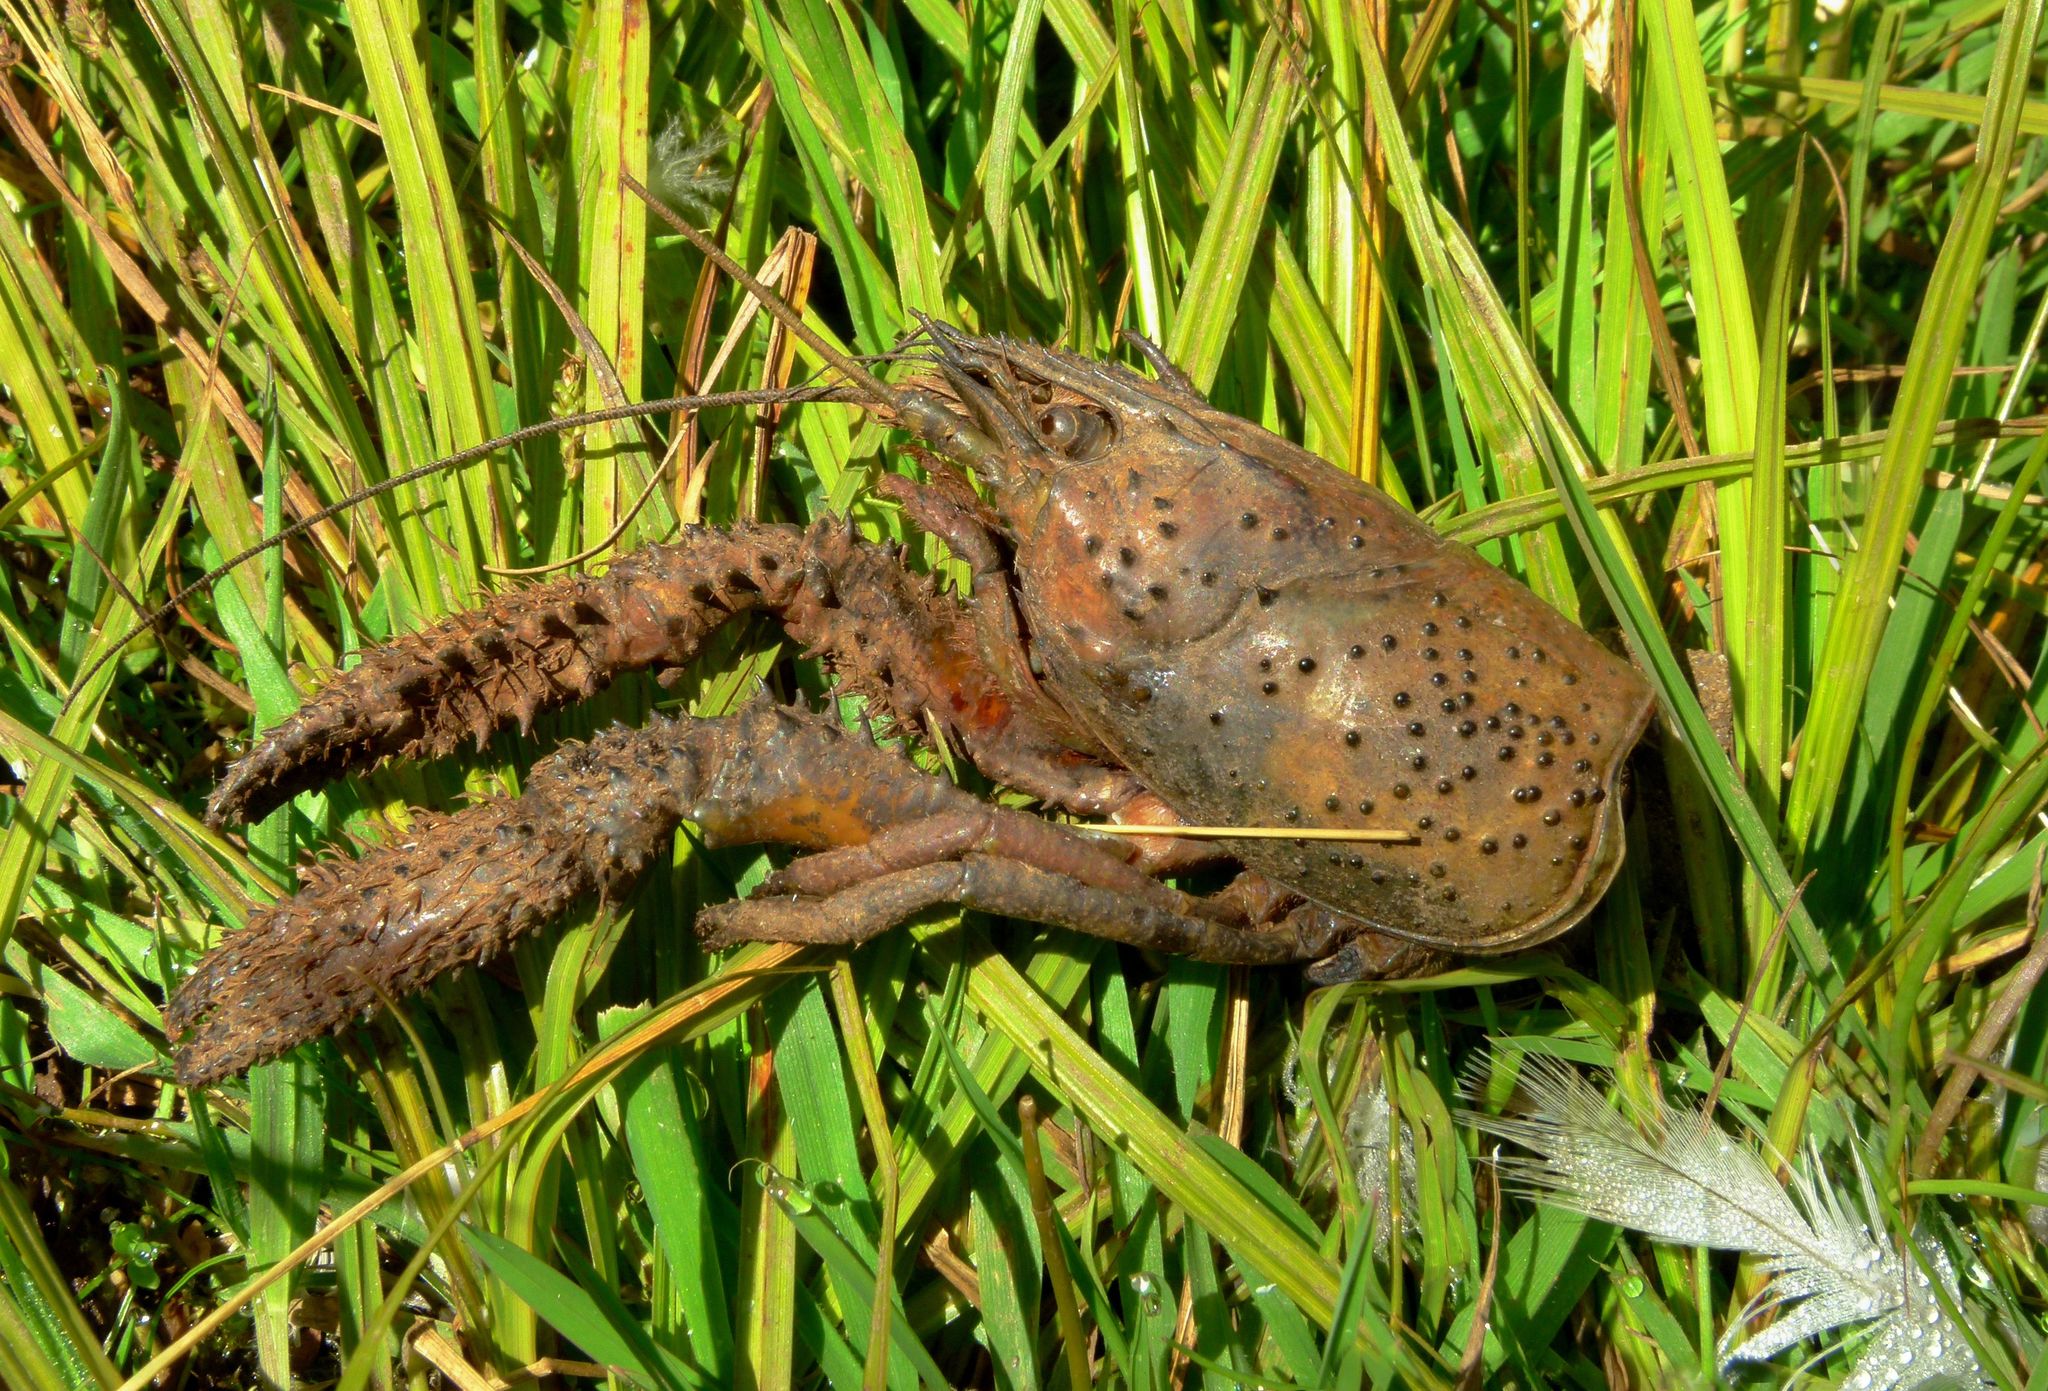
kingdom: Animalia
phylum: Arthropoda
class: Malacostraca
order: Decapoda
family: Parastacidae
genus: Paranephrops
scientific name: Paranephrops zealandicus
